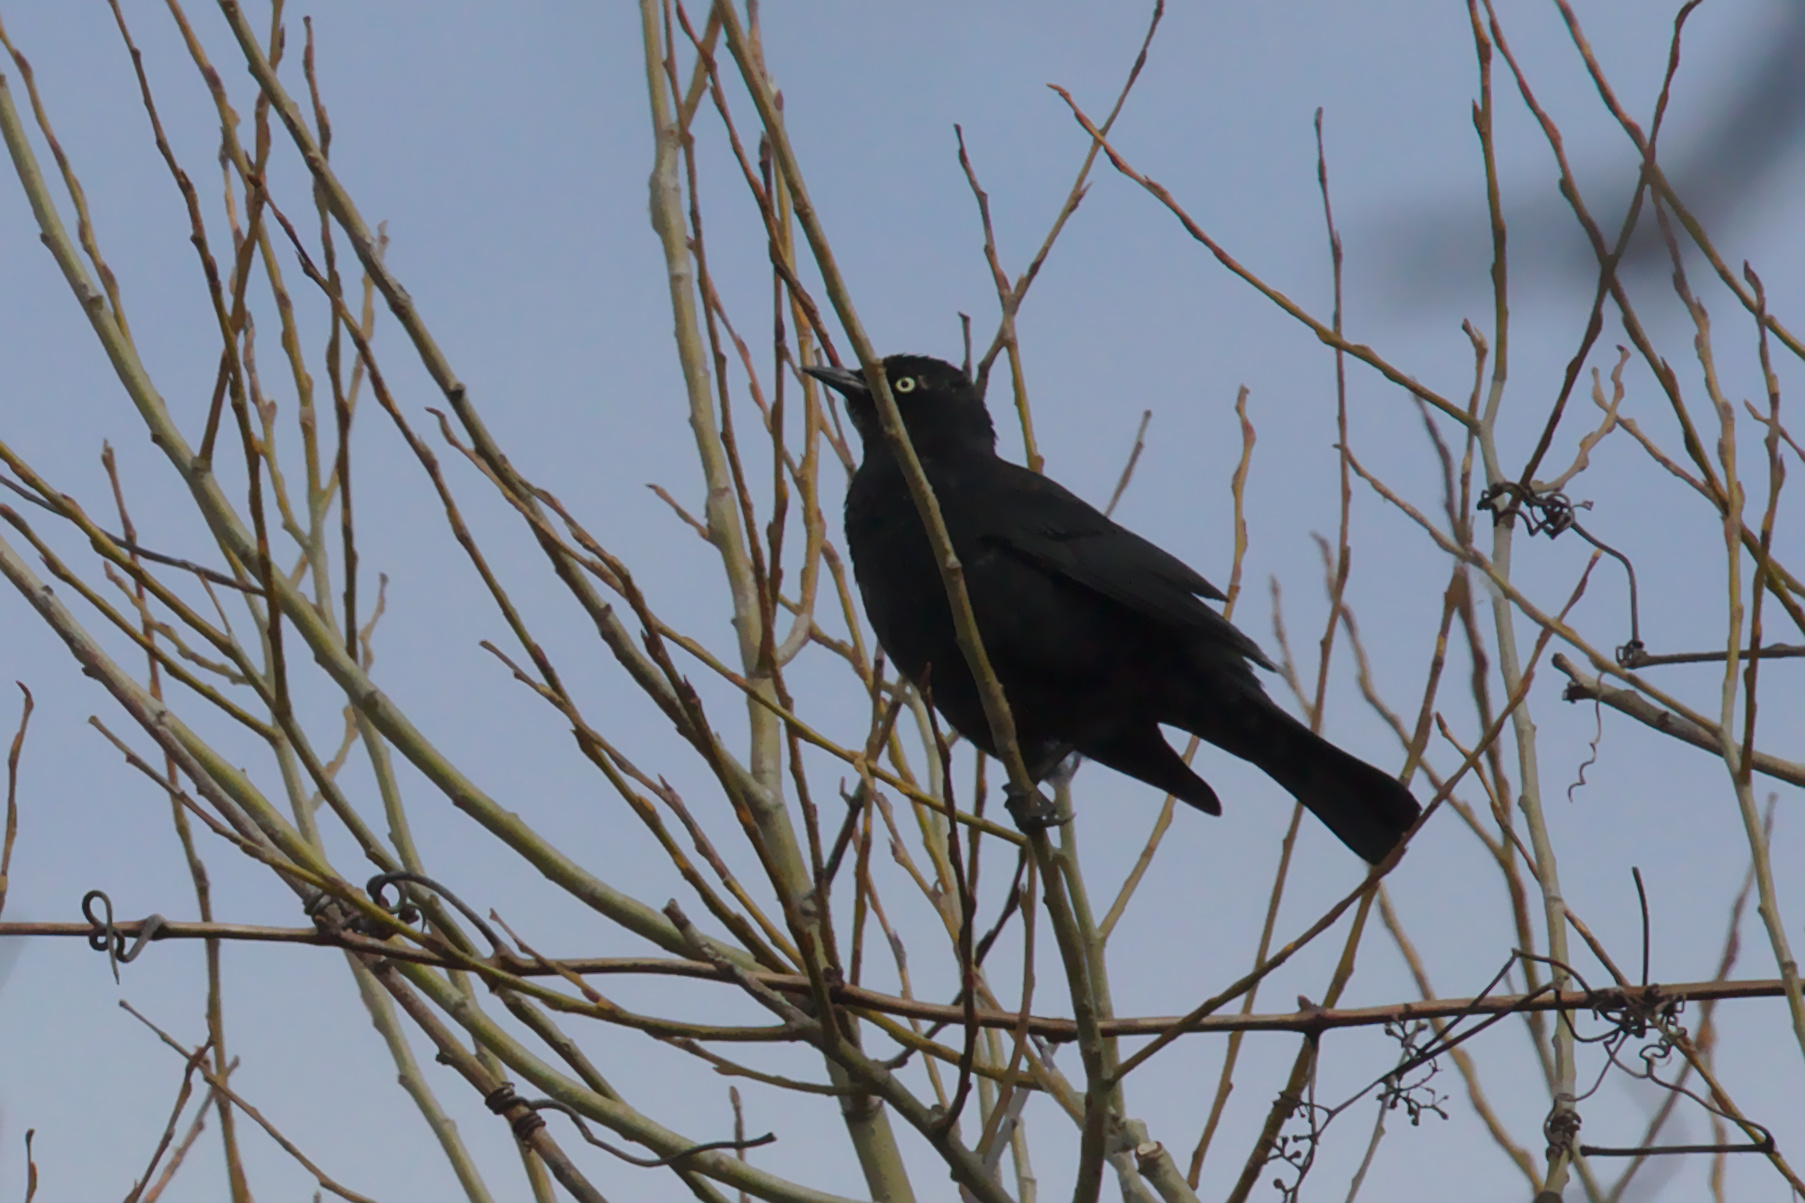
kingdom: Animalia
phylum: Chordata
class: Aves
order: Passeriformes
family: Icteridae
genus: Euphagus
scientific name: Euphagus carolinus
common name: Rusty blackbird
